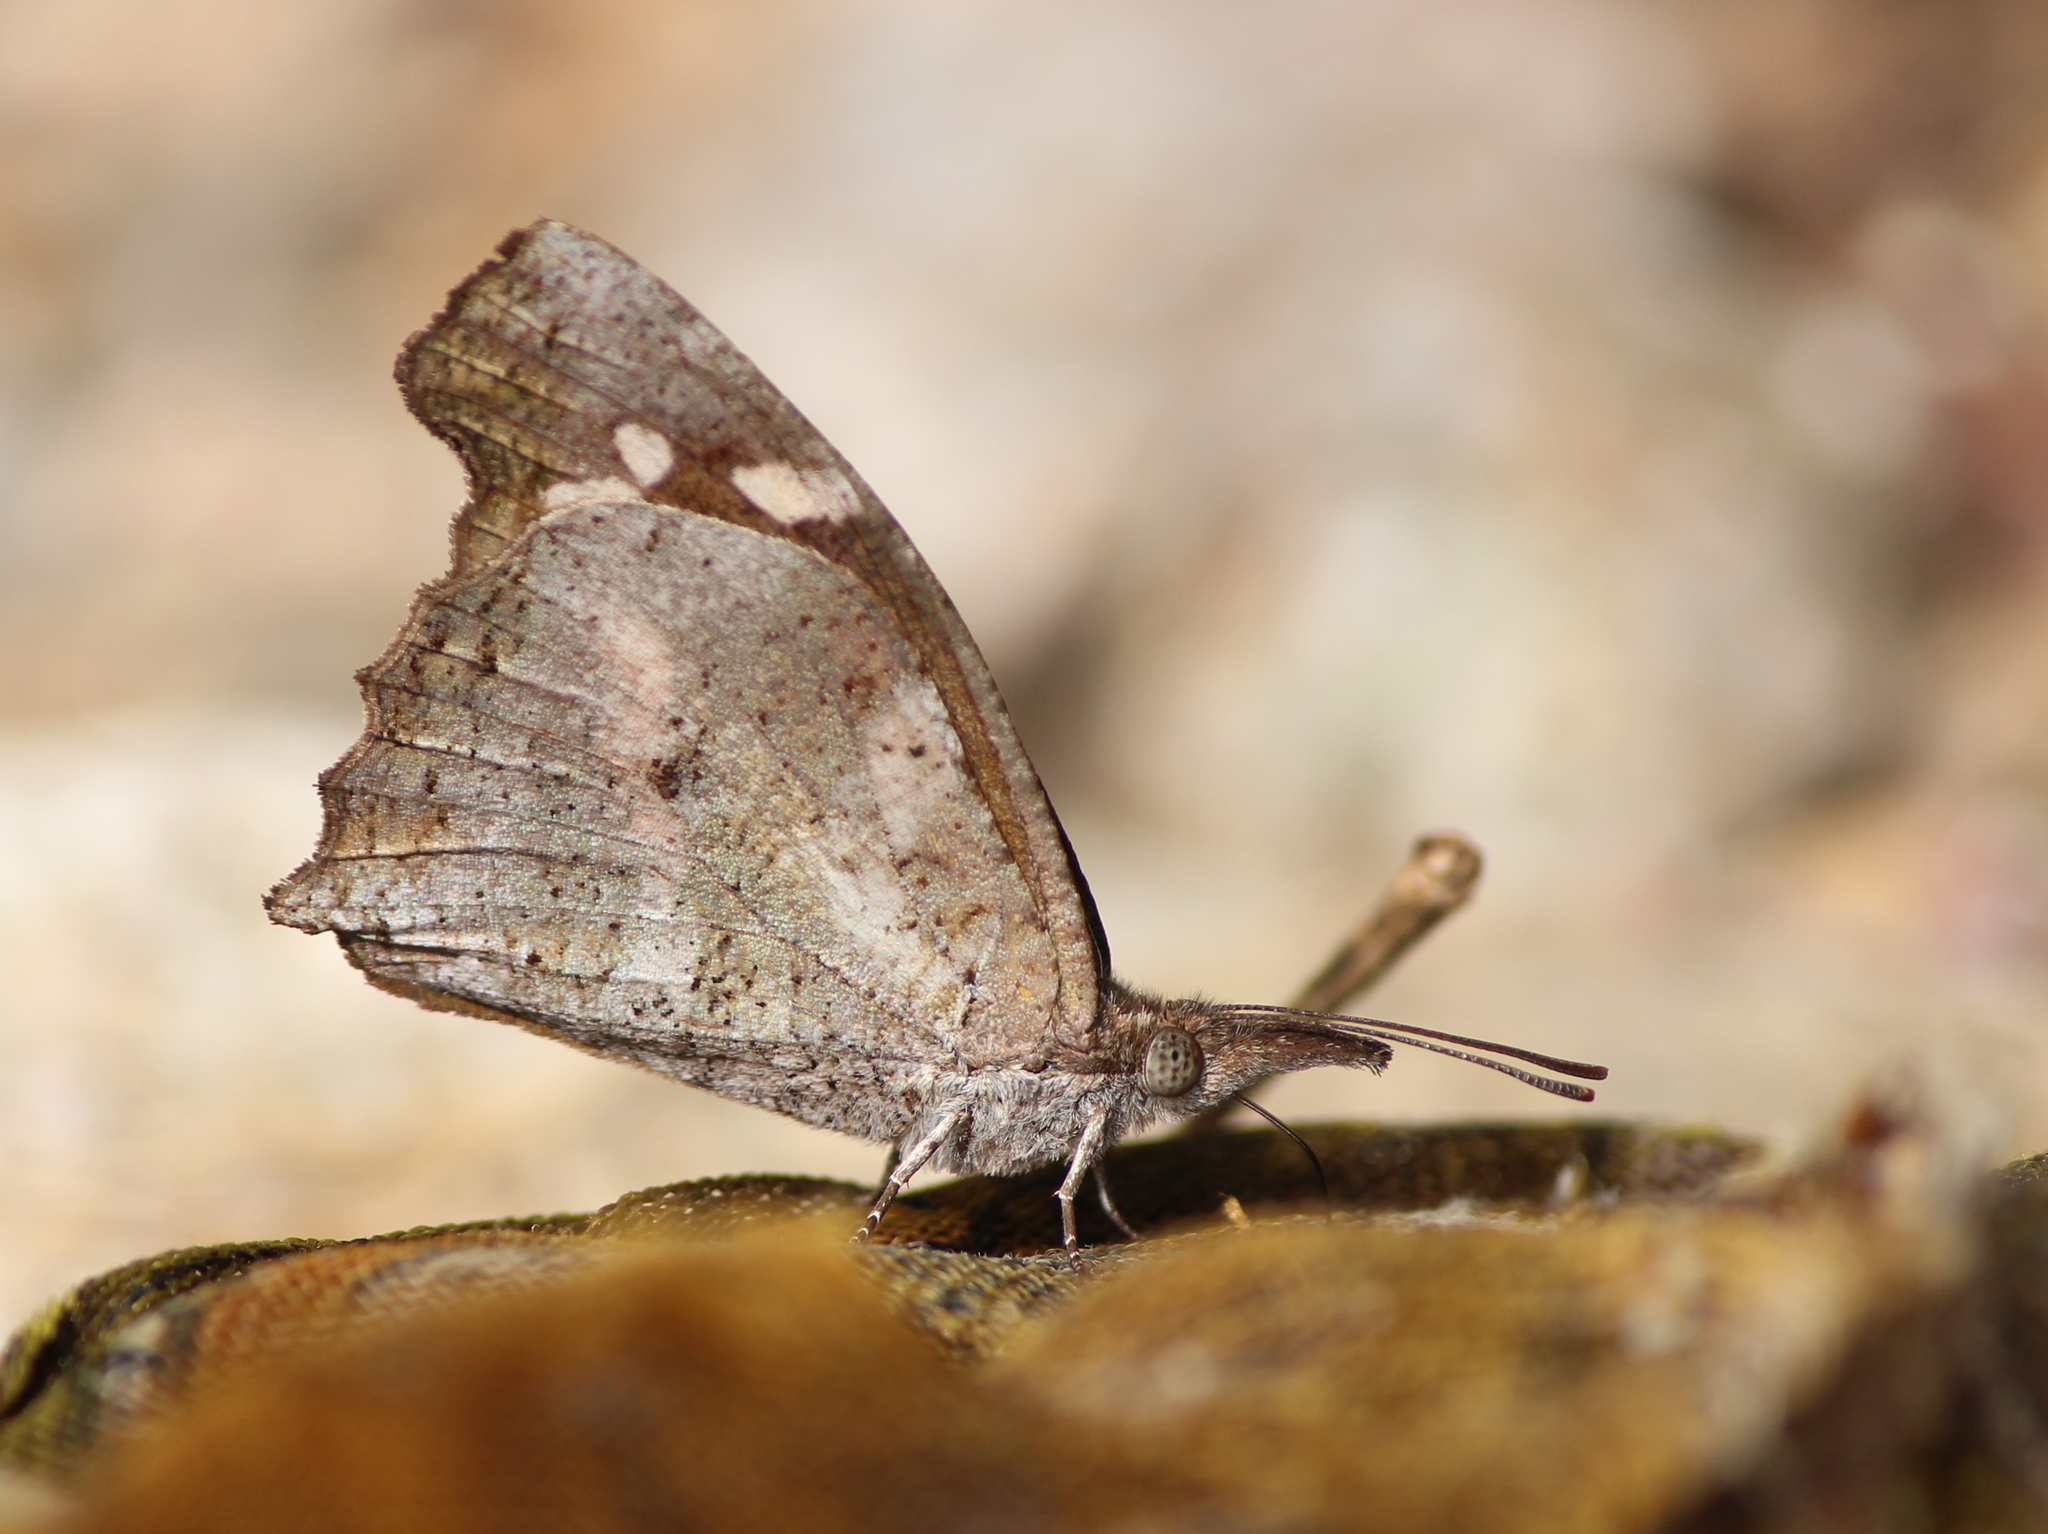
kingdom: Animalia
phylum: Arthropoda
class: Insecta
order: Lepidoptera
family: Nymphalidae
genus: Libythea
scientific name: Libythea laius
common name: African snout
